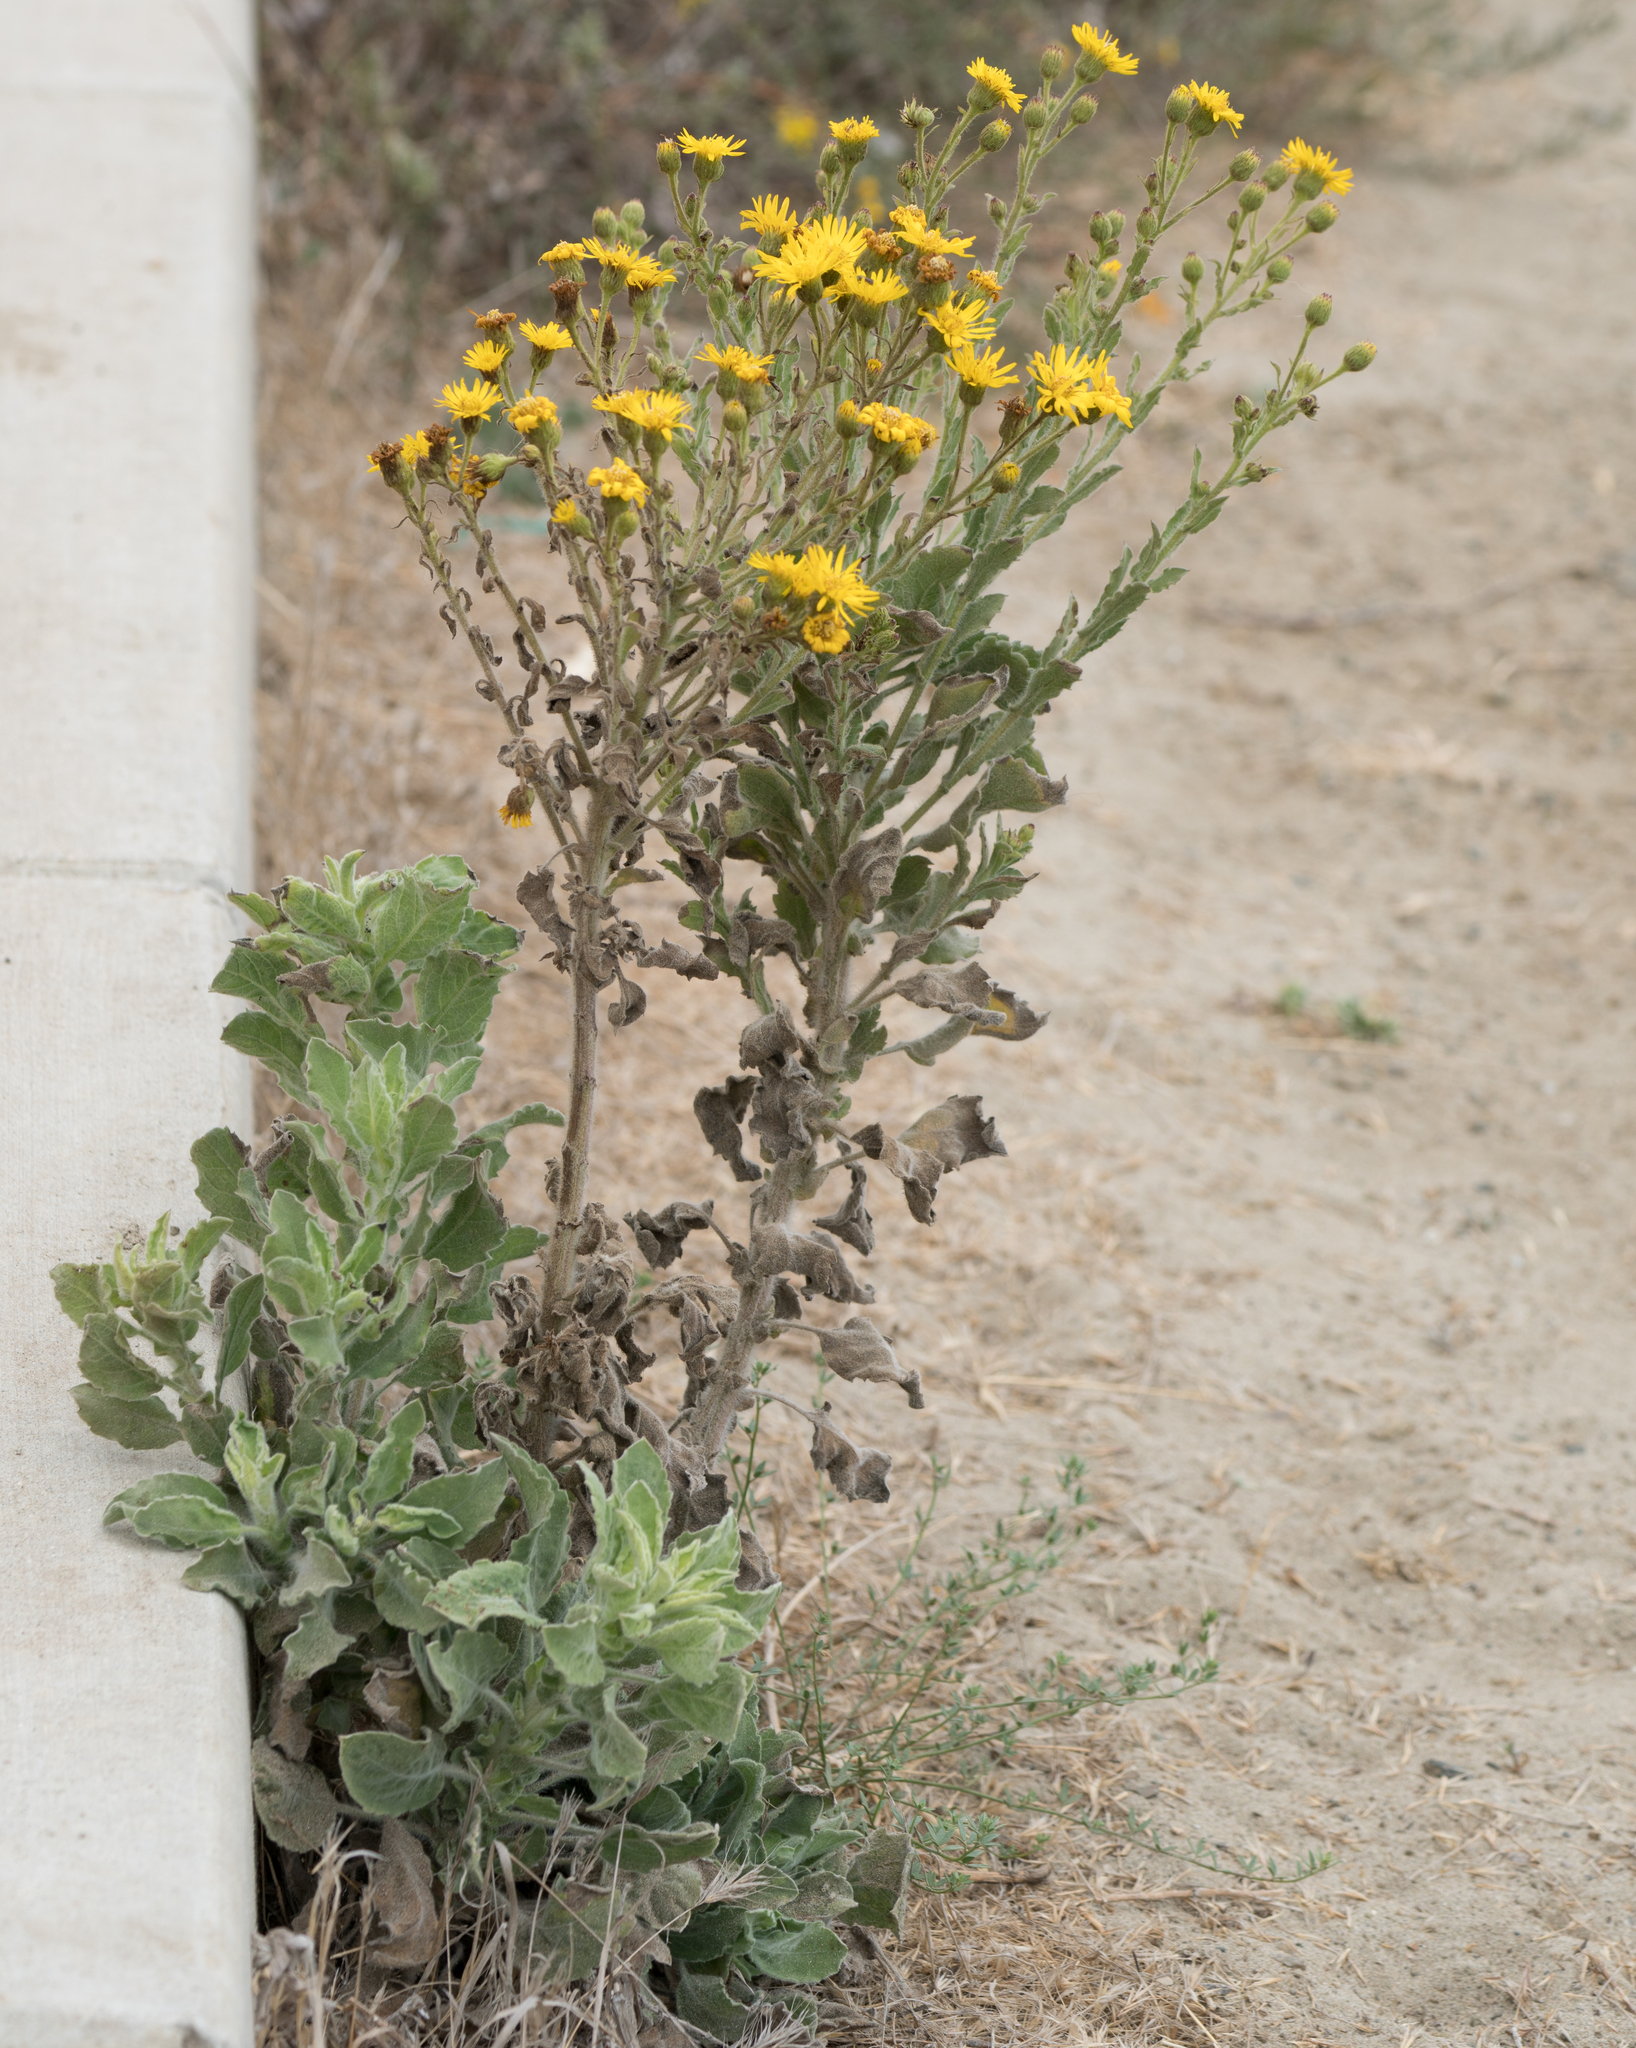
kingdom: Plantae
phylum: Tracheophyta
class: Magnoliopsida
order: Asterales
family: Asteraceae
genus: Heterotheca
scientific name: Heterotheca grandiflora
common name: Telegraphweed
